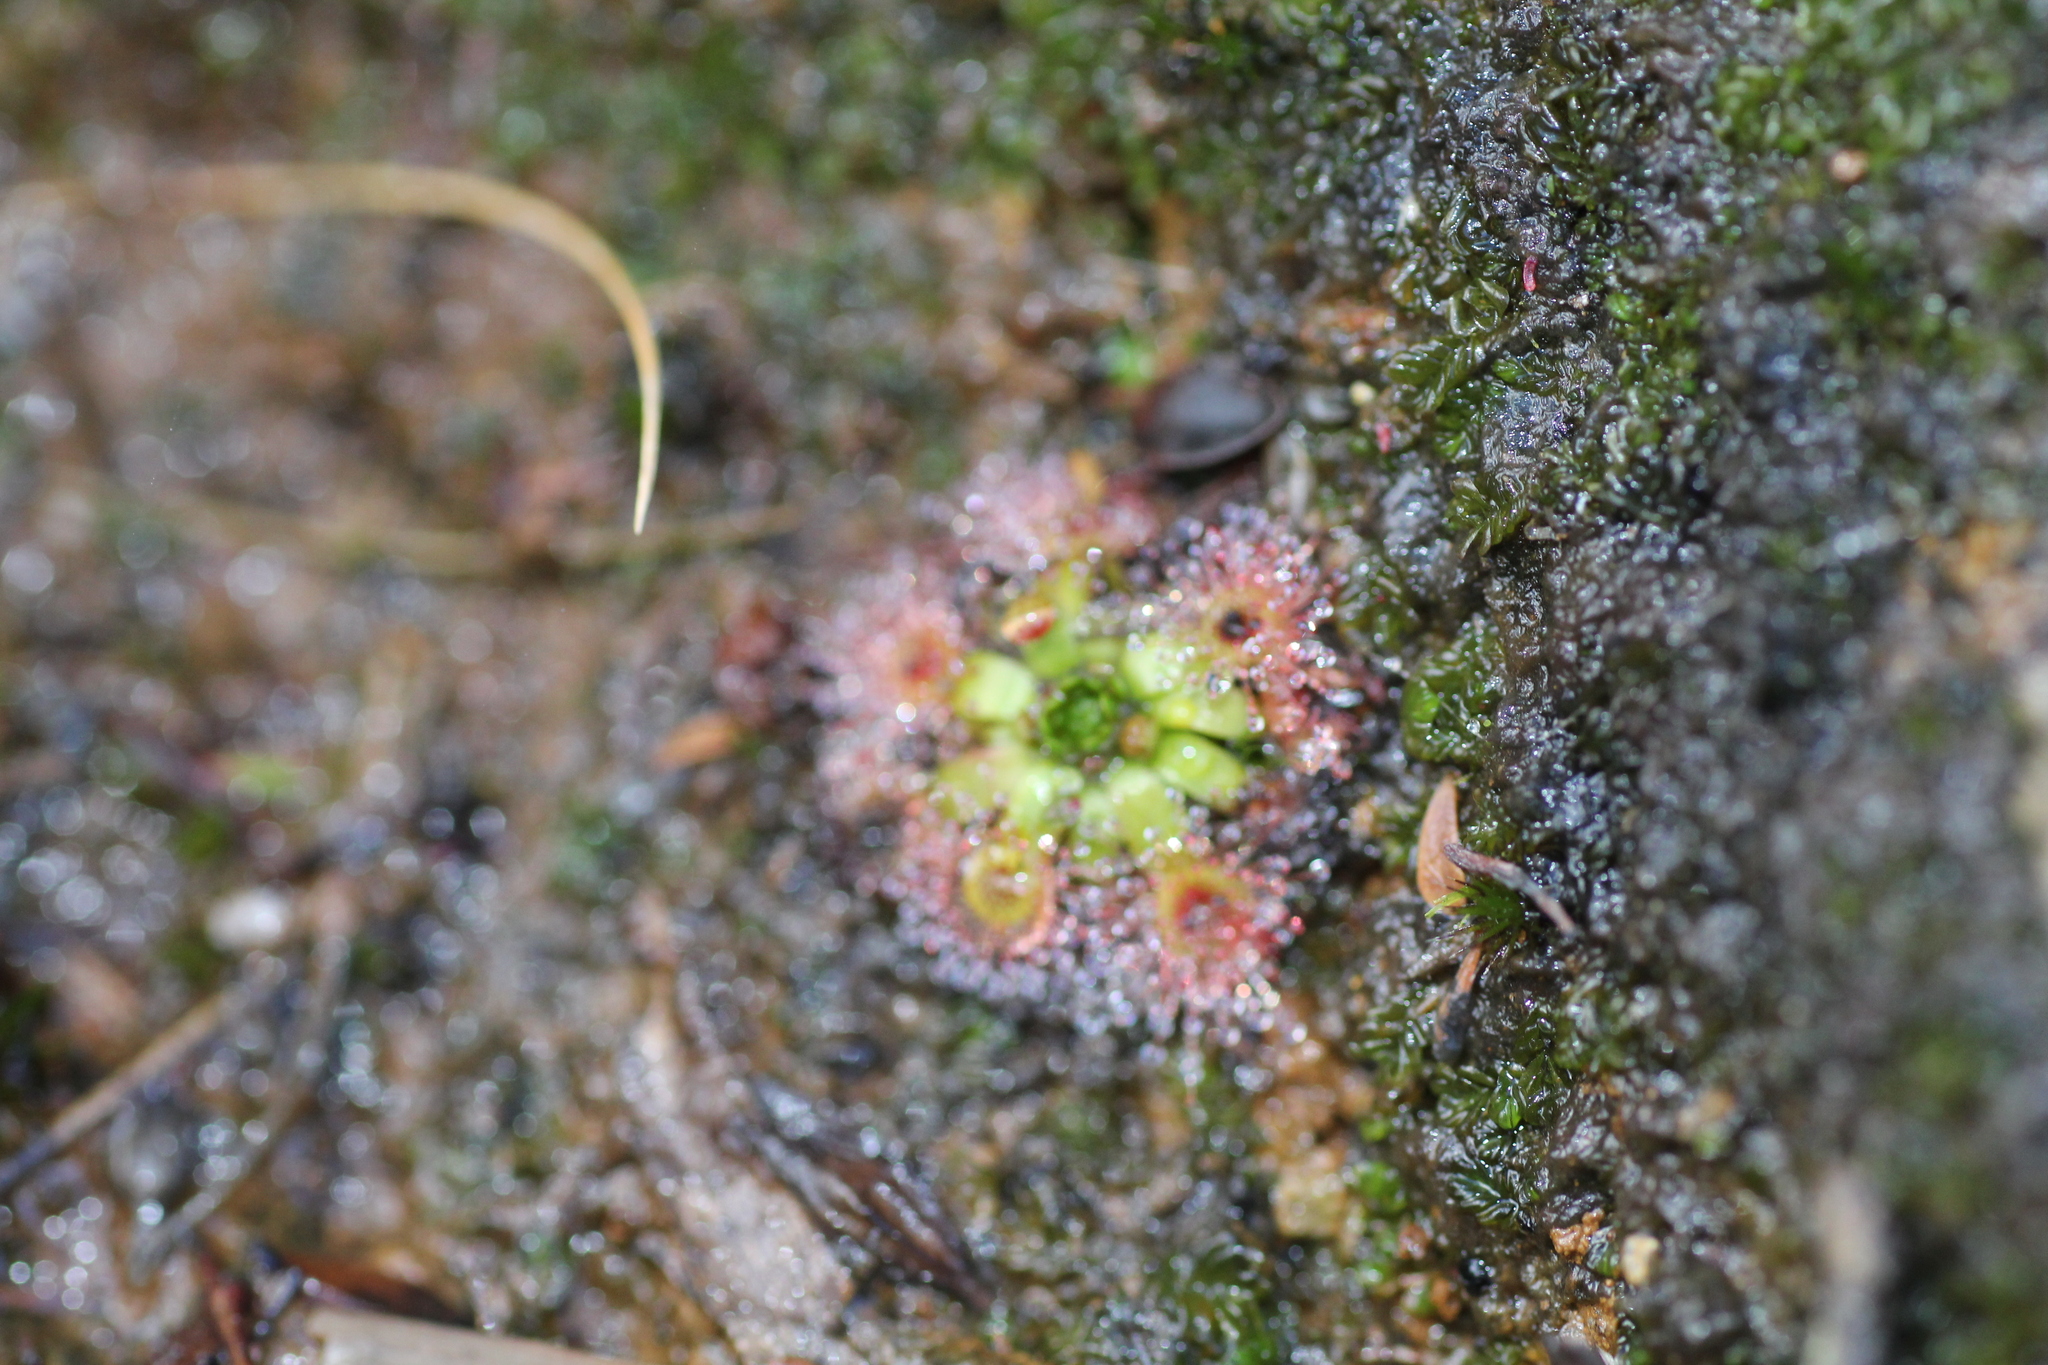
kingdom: Plantae
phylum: Tracheophyta
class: Magnoliopsida
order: Caryophyllales
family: Droseraceae
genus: Drosera
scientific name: Drosera pulchella
